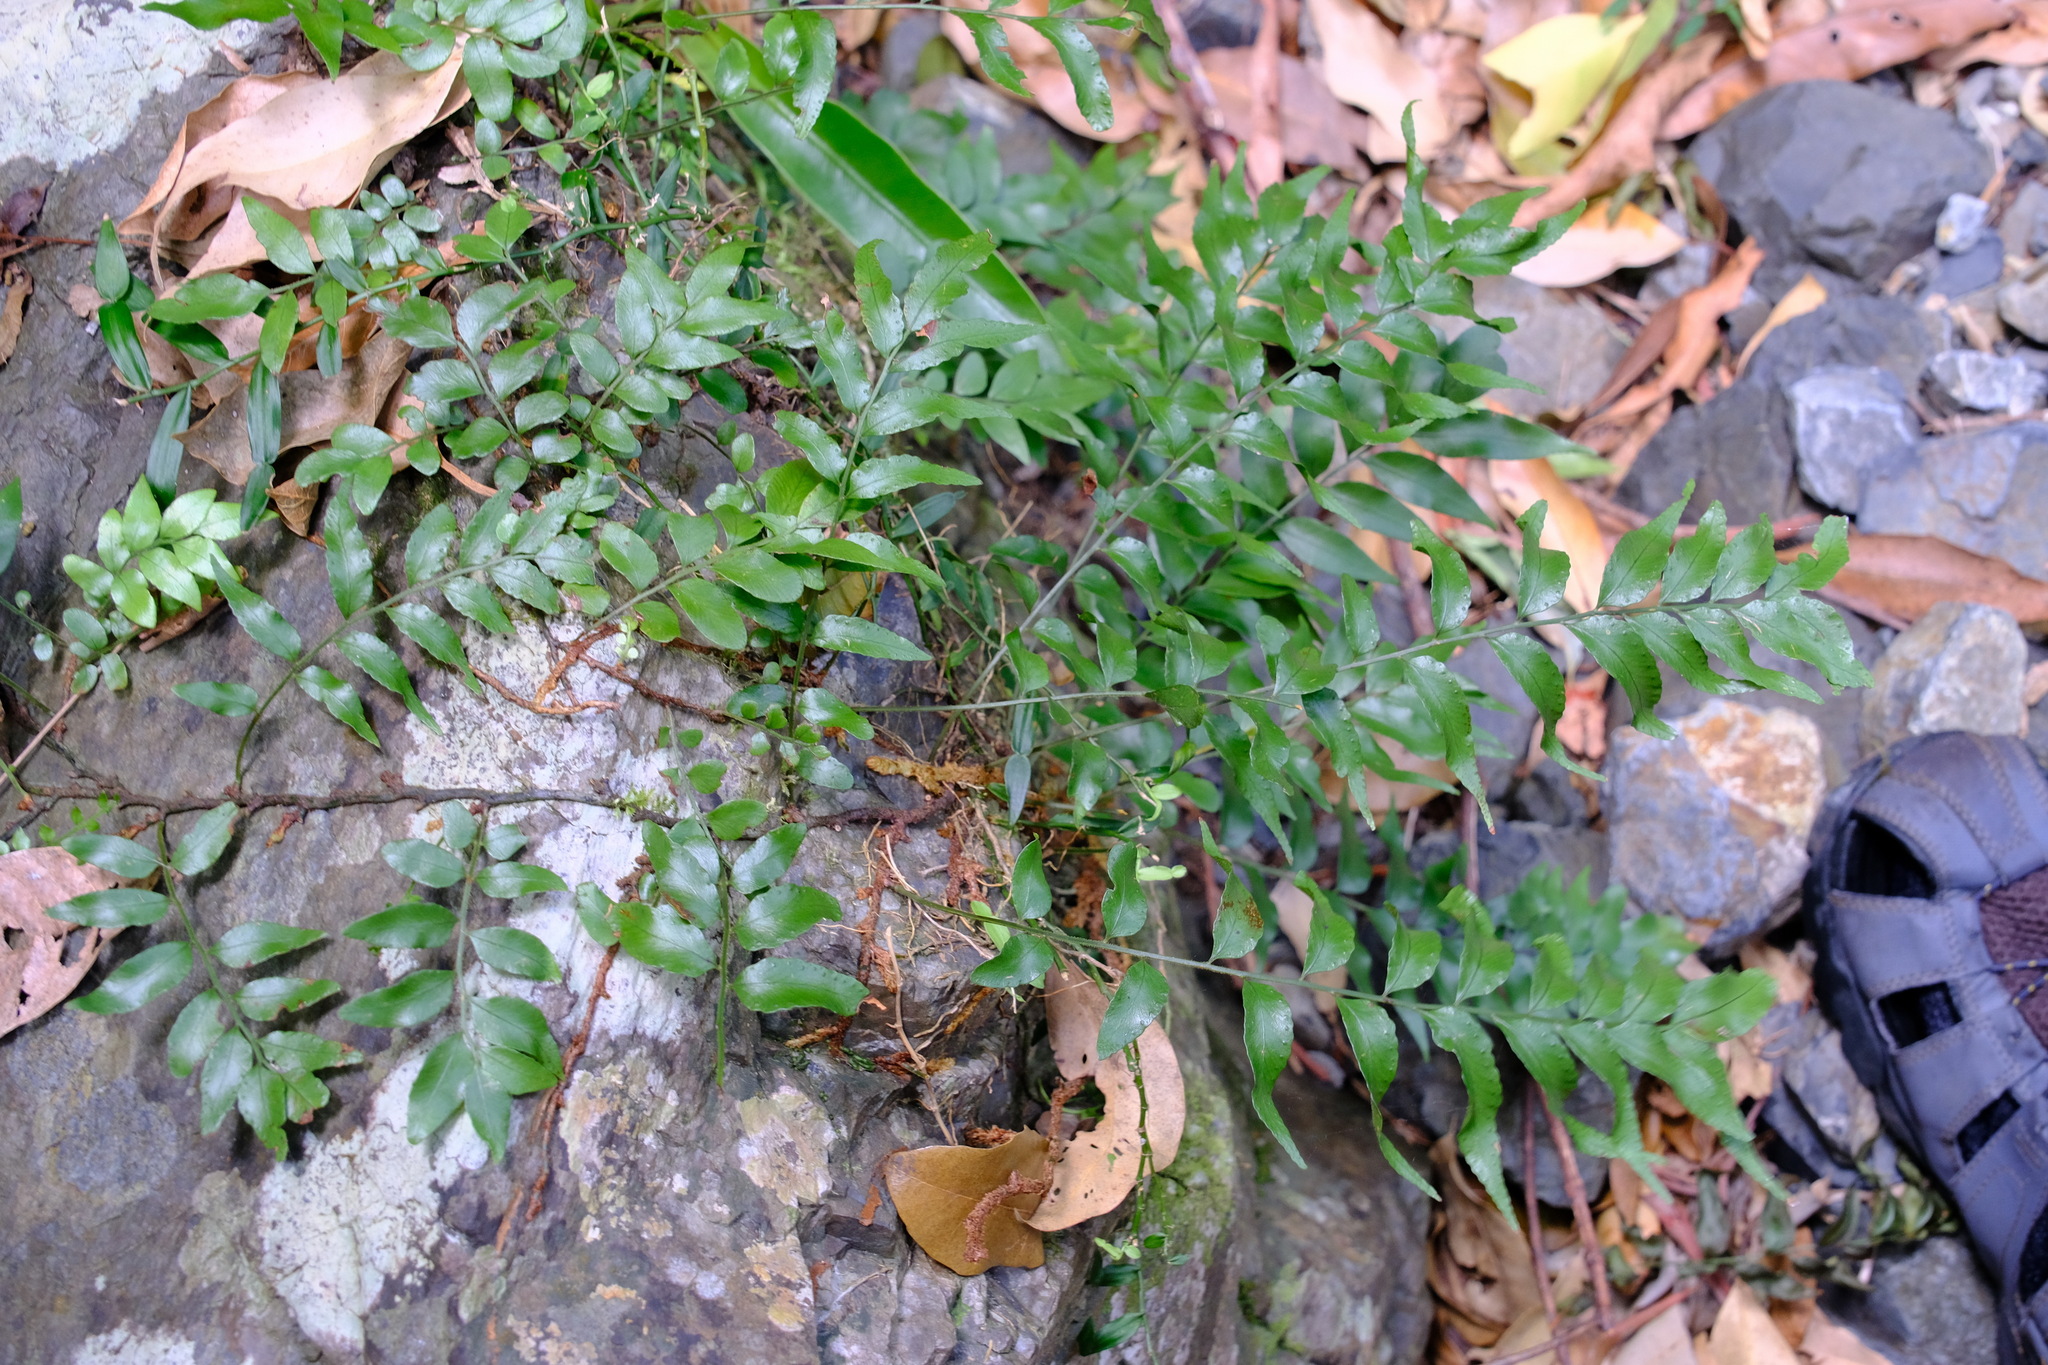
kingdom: Plantae
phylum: Tracheophyta
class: Polypodiopsida
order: Polypodiales
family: Tectariaceae
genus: Arthropteris
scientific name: Arthropteris tenella
